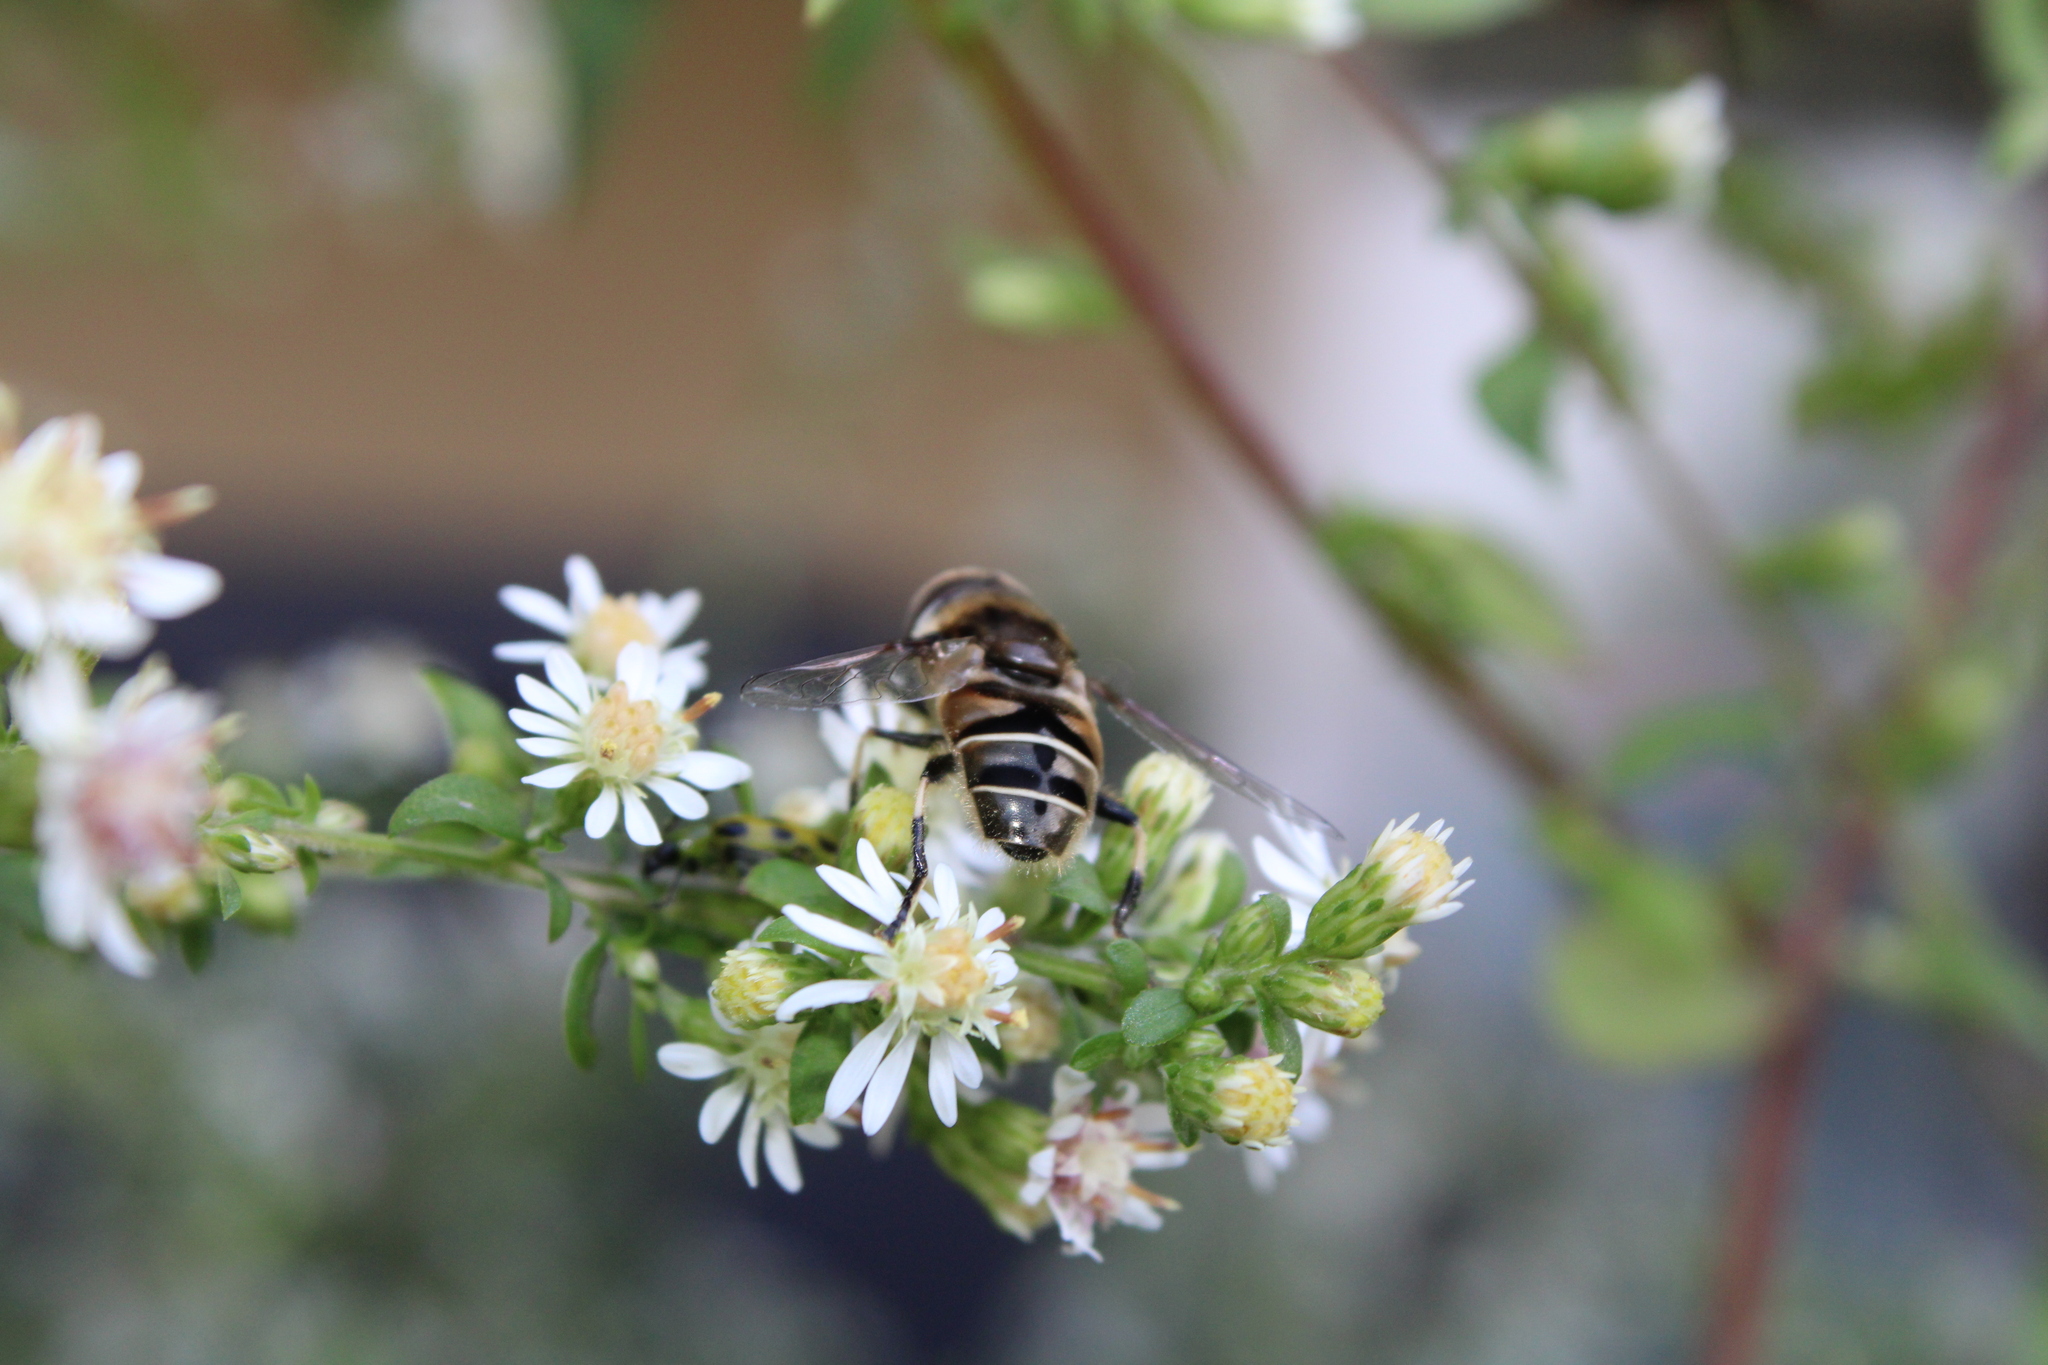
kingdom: Animalia
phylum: Arthropoda
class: Insecta
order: Diptera
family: Syrphidae
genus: Eristalis
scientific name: Eristalis dimidiata
